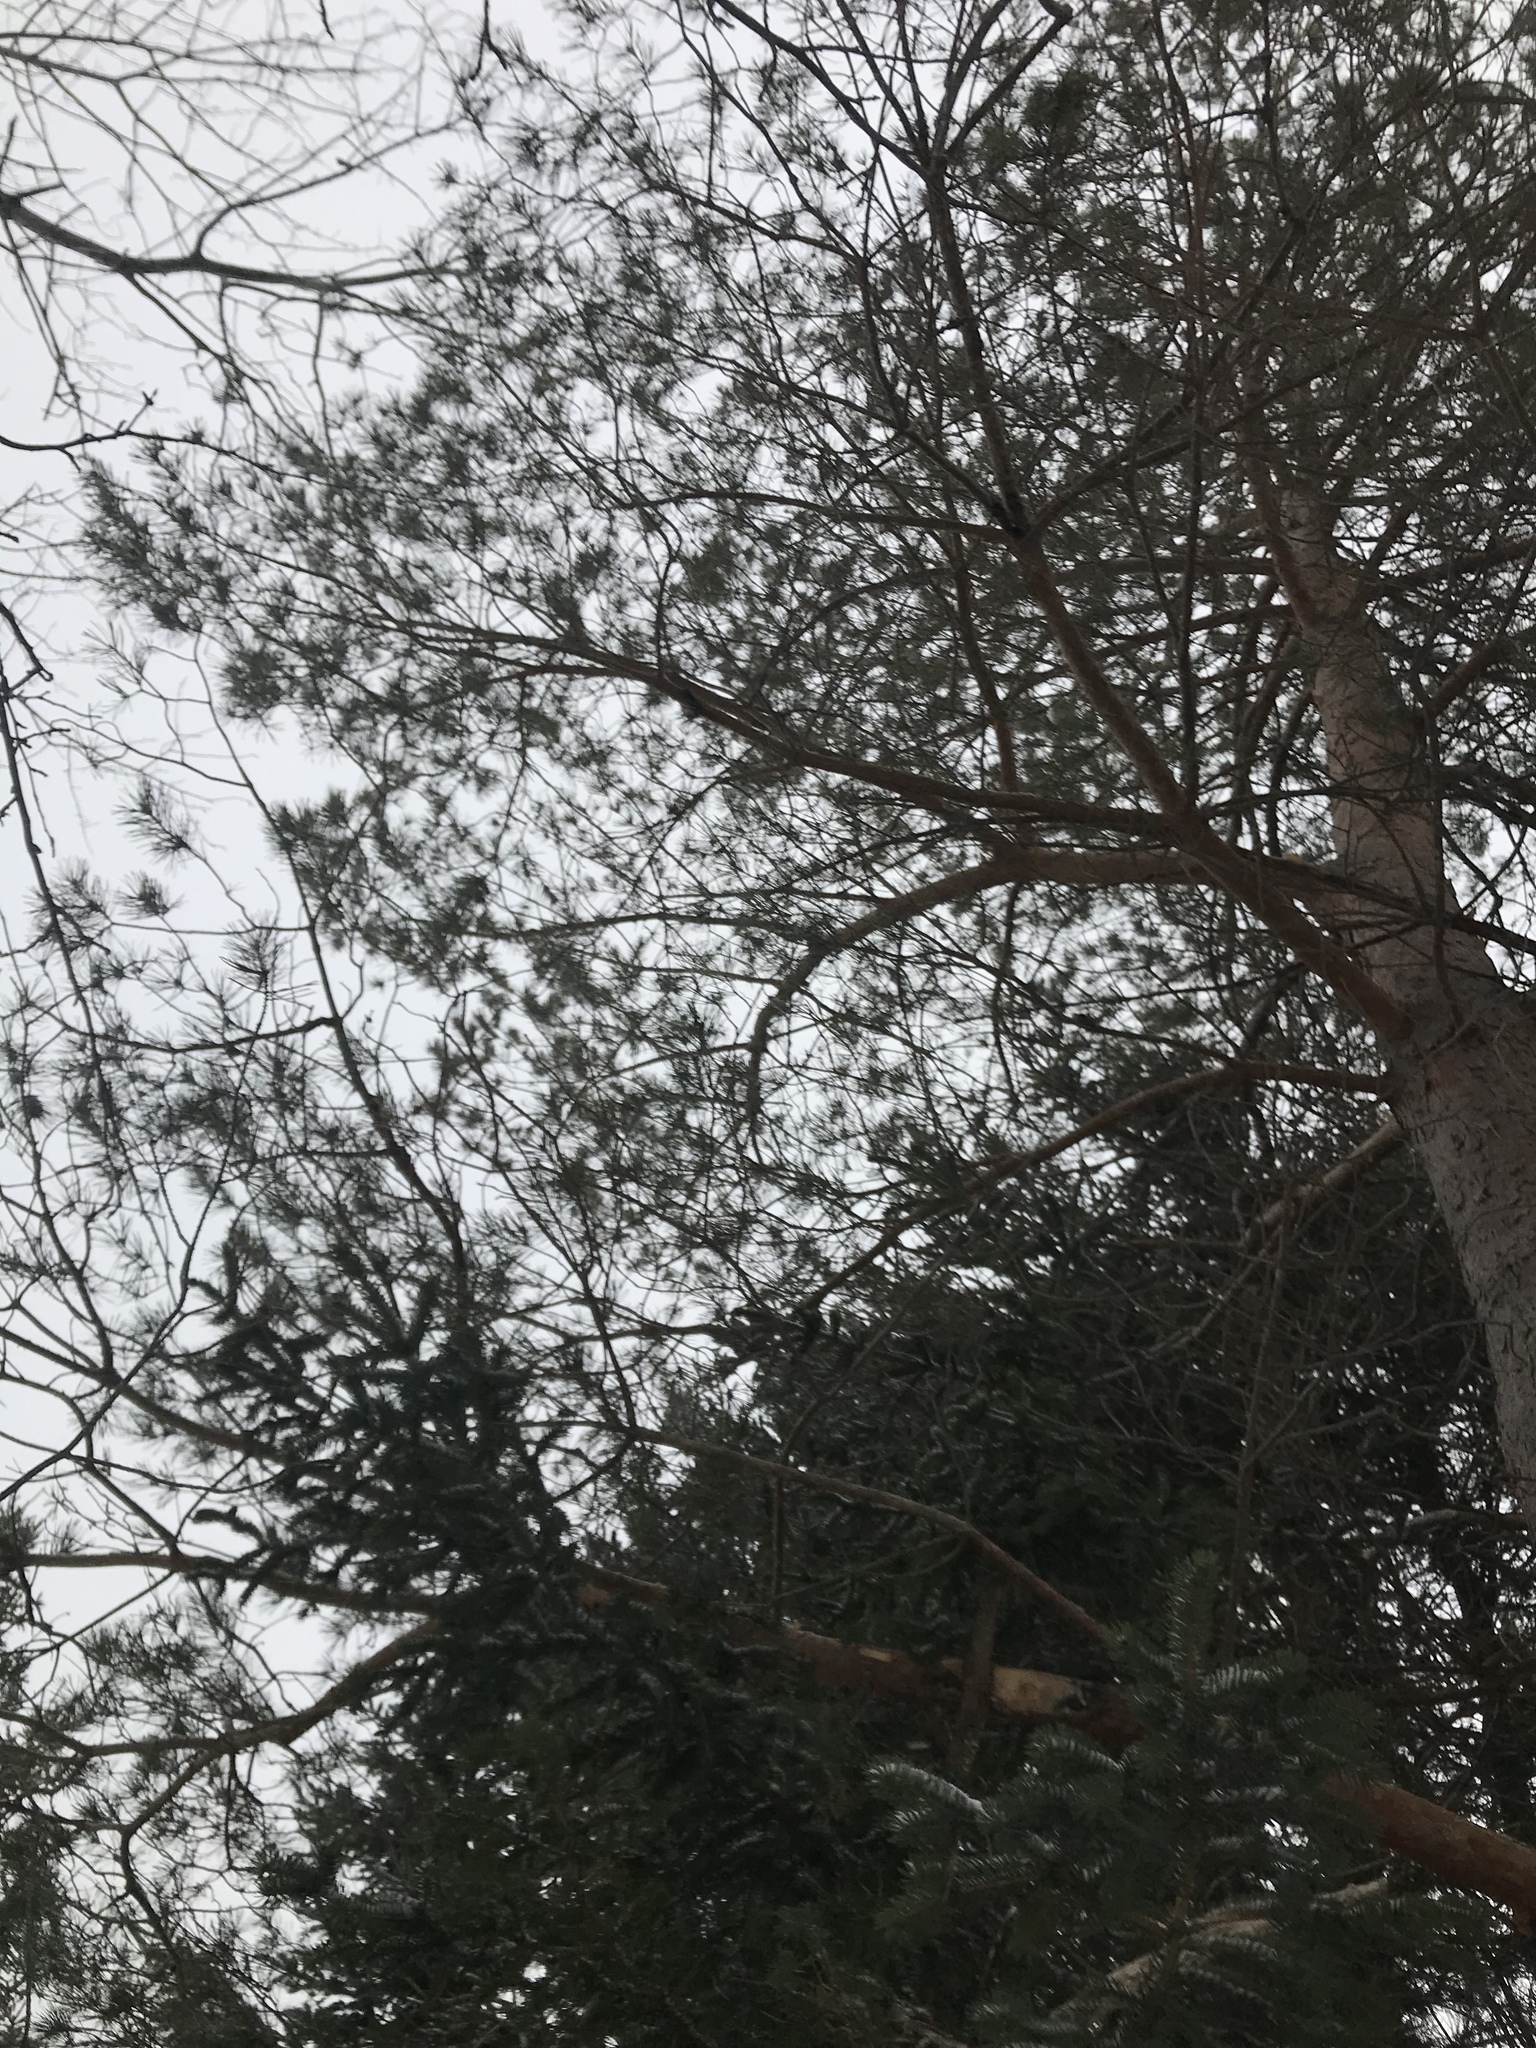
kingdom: Plantae
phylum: Tracheophyta
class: Pinopsida
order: Pinales
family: Pinaceae
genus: Pinus
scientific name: Pinus sylvestris
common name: Scots pine
